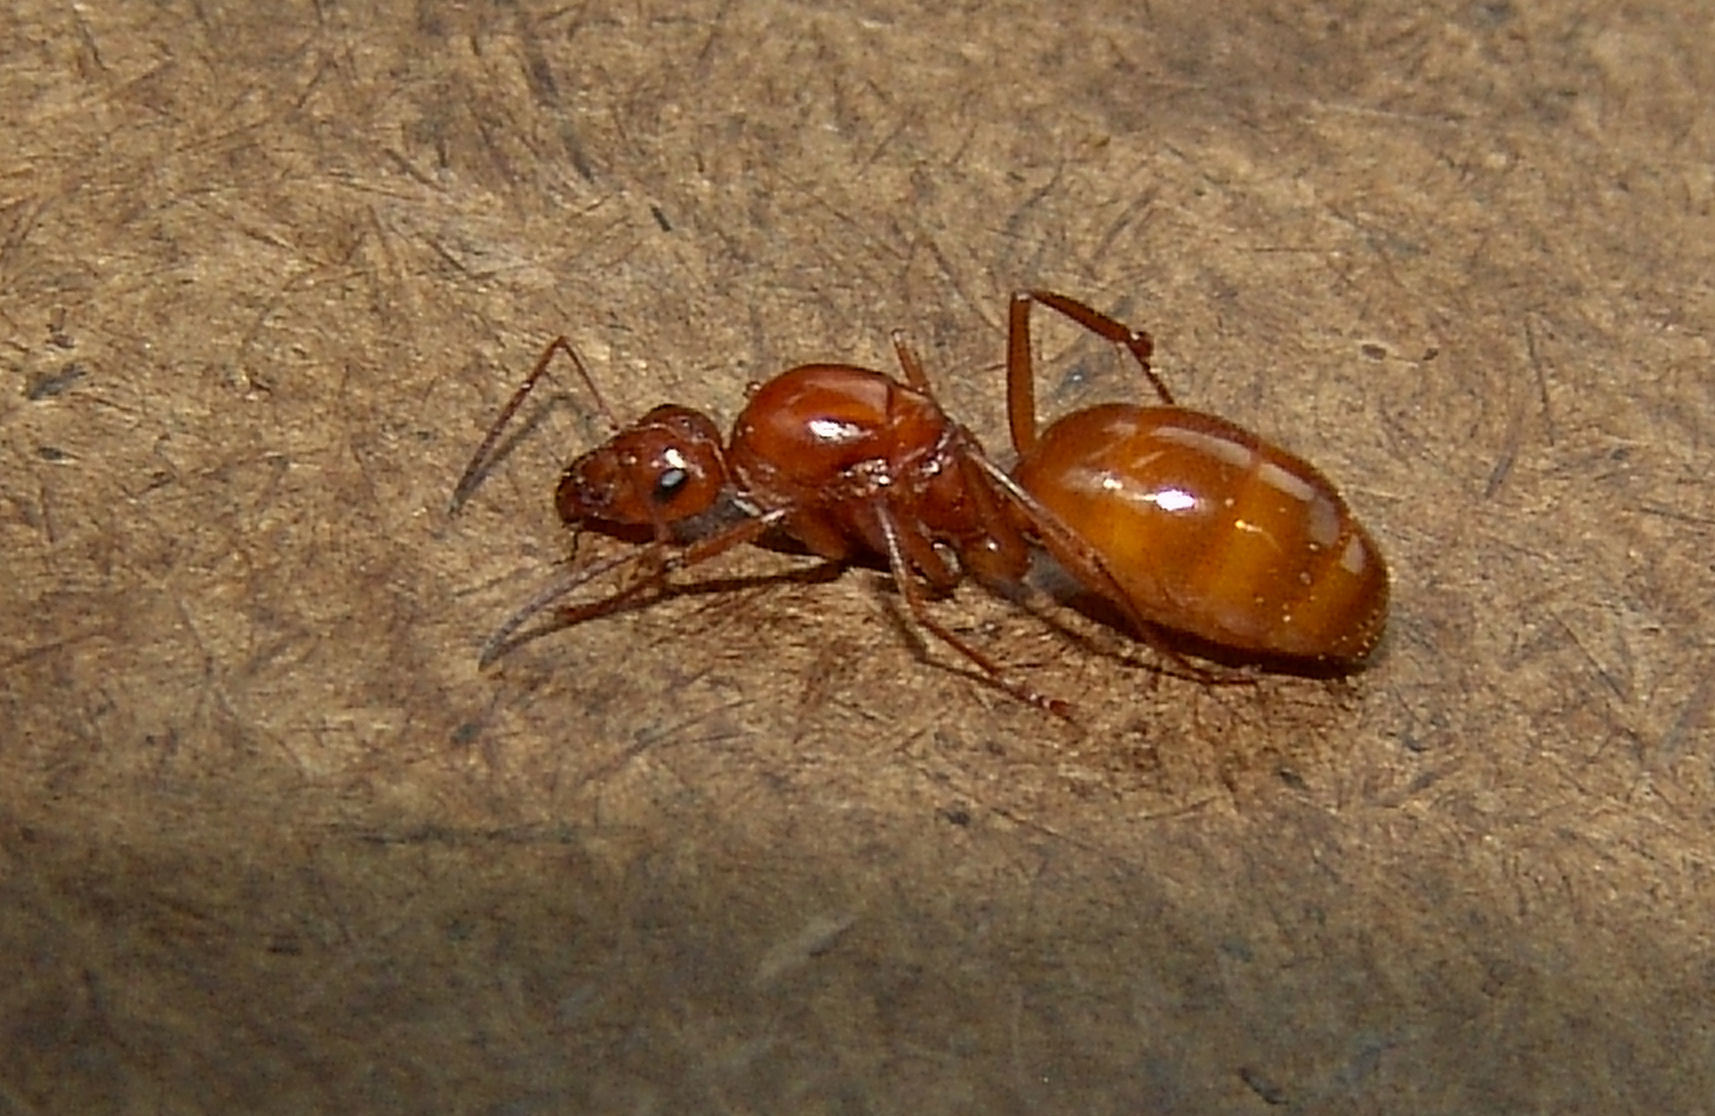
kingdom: Animalia
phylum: Arthropoda
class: Insecta
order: Hymenoptera
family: Formicidae
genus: Formica
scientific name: Formica pallidefulva
